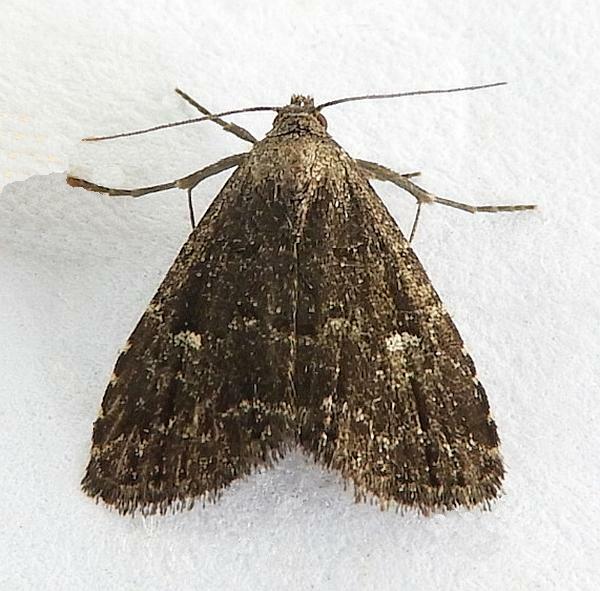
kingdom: Animalia
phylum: Arthropoda
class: Insecta
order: Lepidoptera
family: Erebidae
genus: Dyspyralis
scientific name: Dyspyralis nigellus
